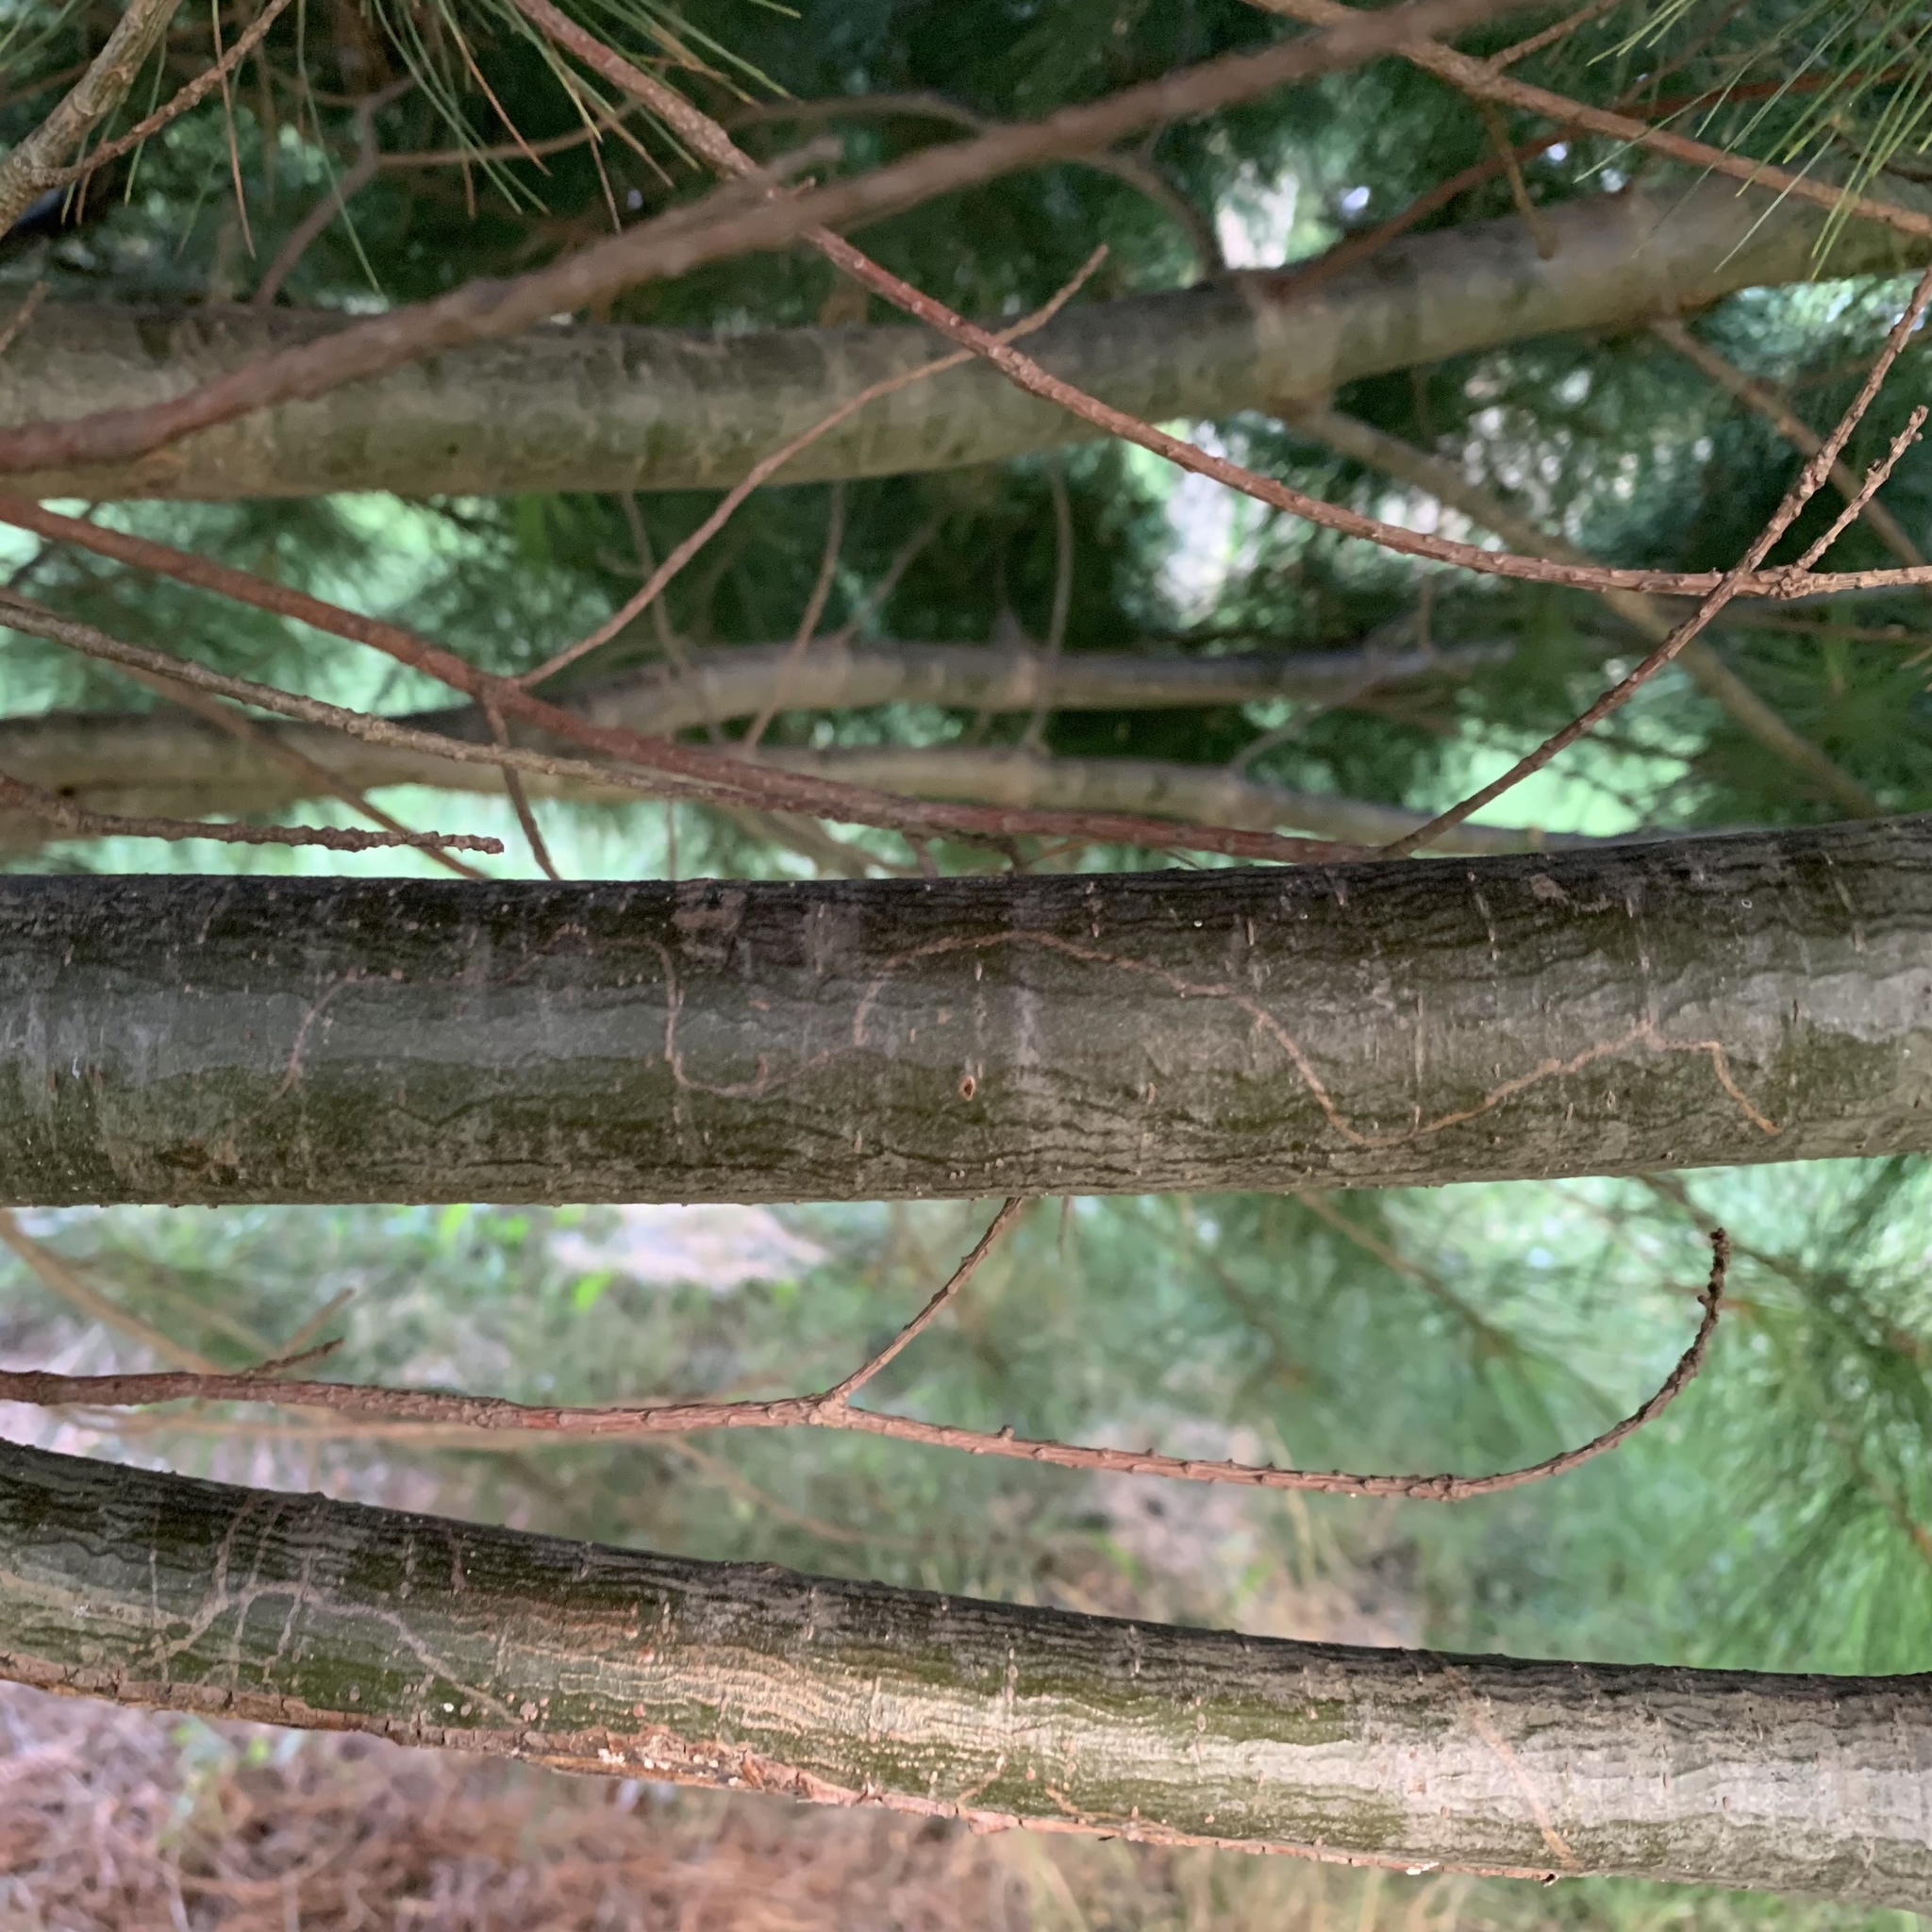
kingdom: Animalia
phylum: Arthropoda
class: Insecta
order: Lepidoptera
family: Gracillariidae
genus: Marmara
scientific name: Marmara fasciella
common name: White pine barkminer moth
